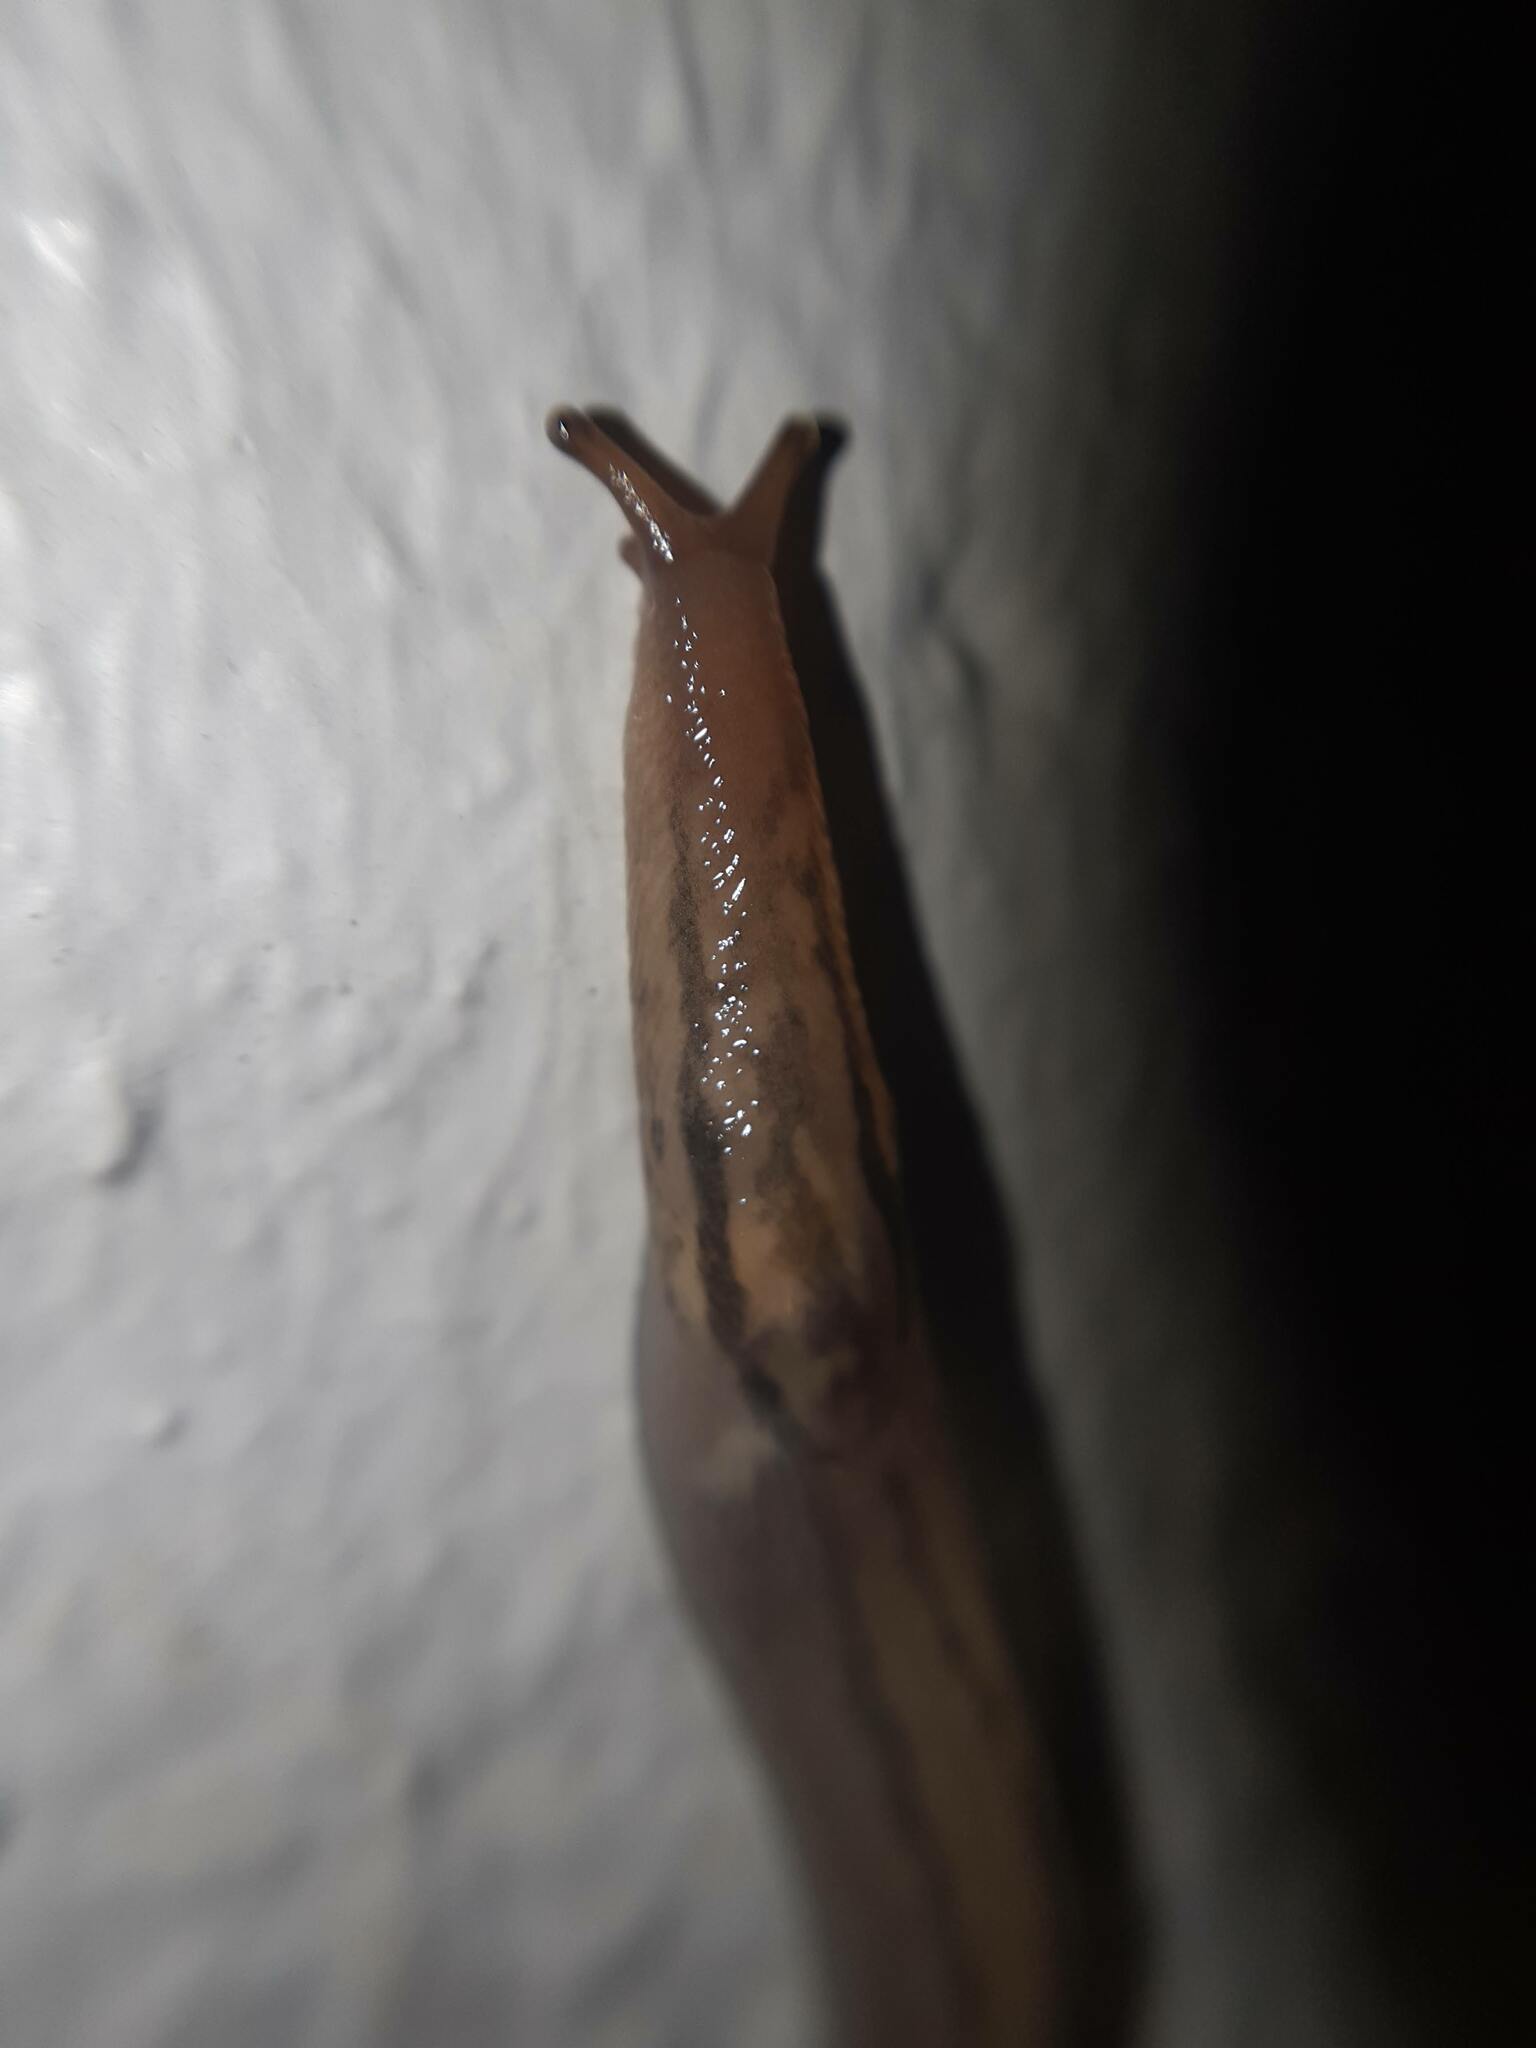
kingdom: Animalia
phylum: Mollusca
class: Gastropoda
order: Stylommatophora
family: Limacidae
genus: Ambigolimax
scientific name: Ambigolimax
